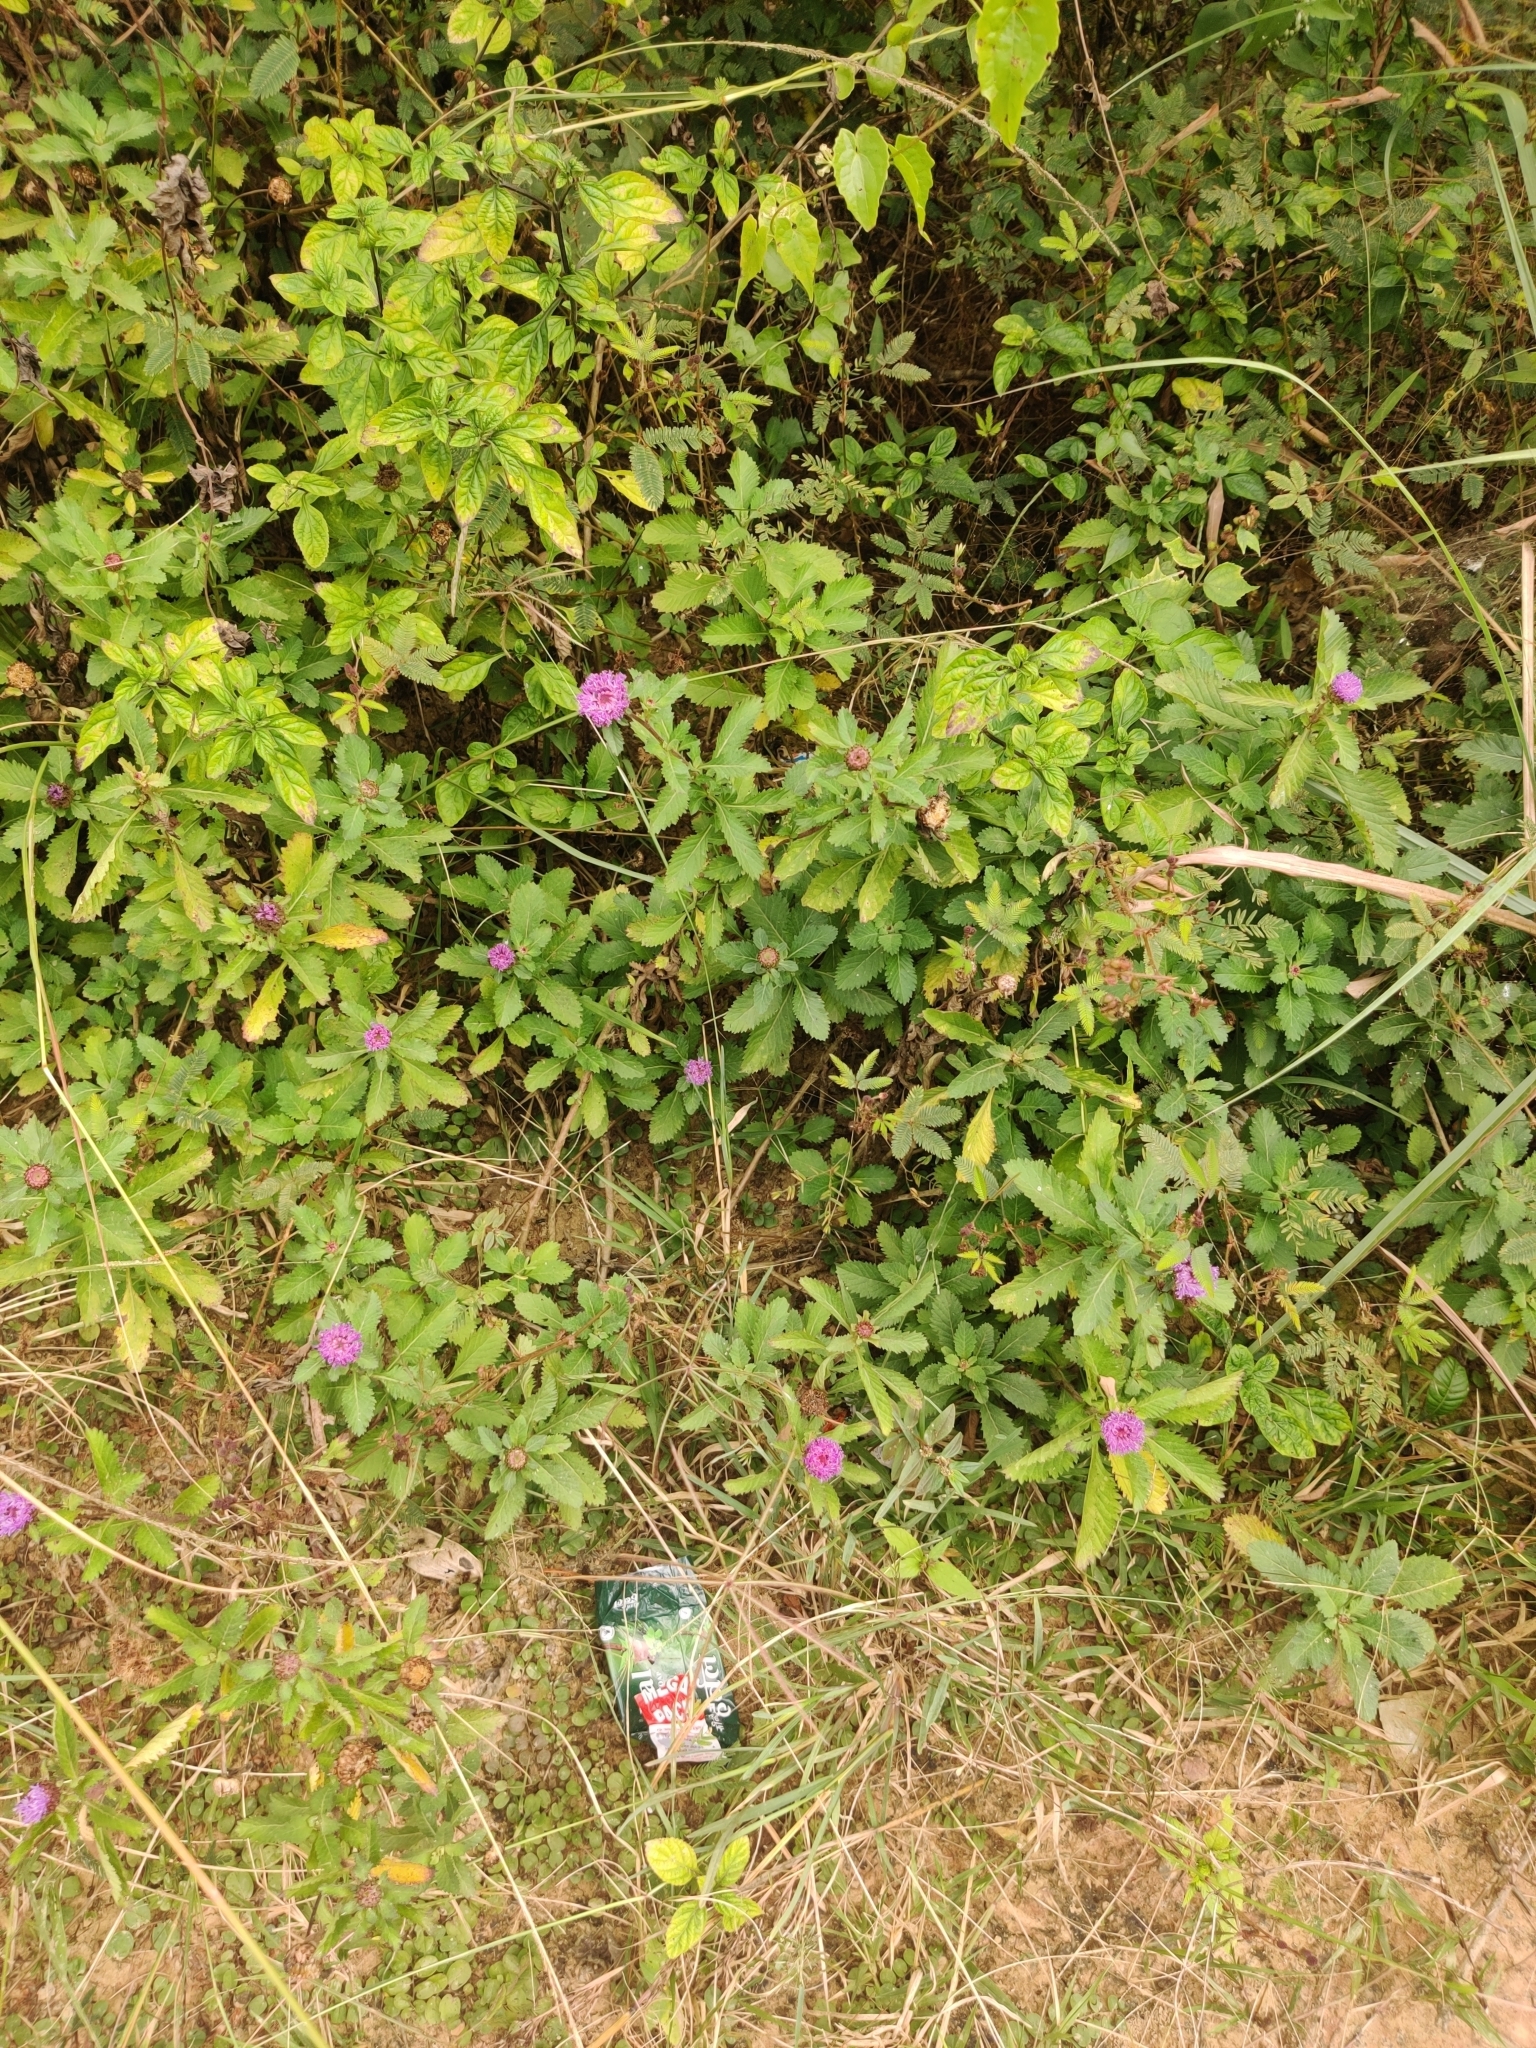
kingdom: Plantae
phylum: Tracheophyta
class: Magnoliopsida
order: Asterales
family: Asteraceae
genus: Centratherum
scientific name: Centratherum punctatum
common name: Larkdaisy
